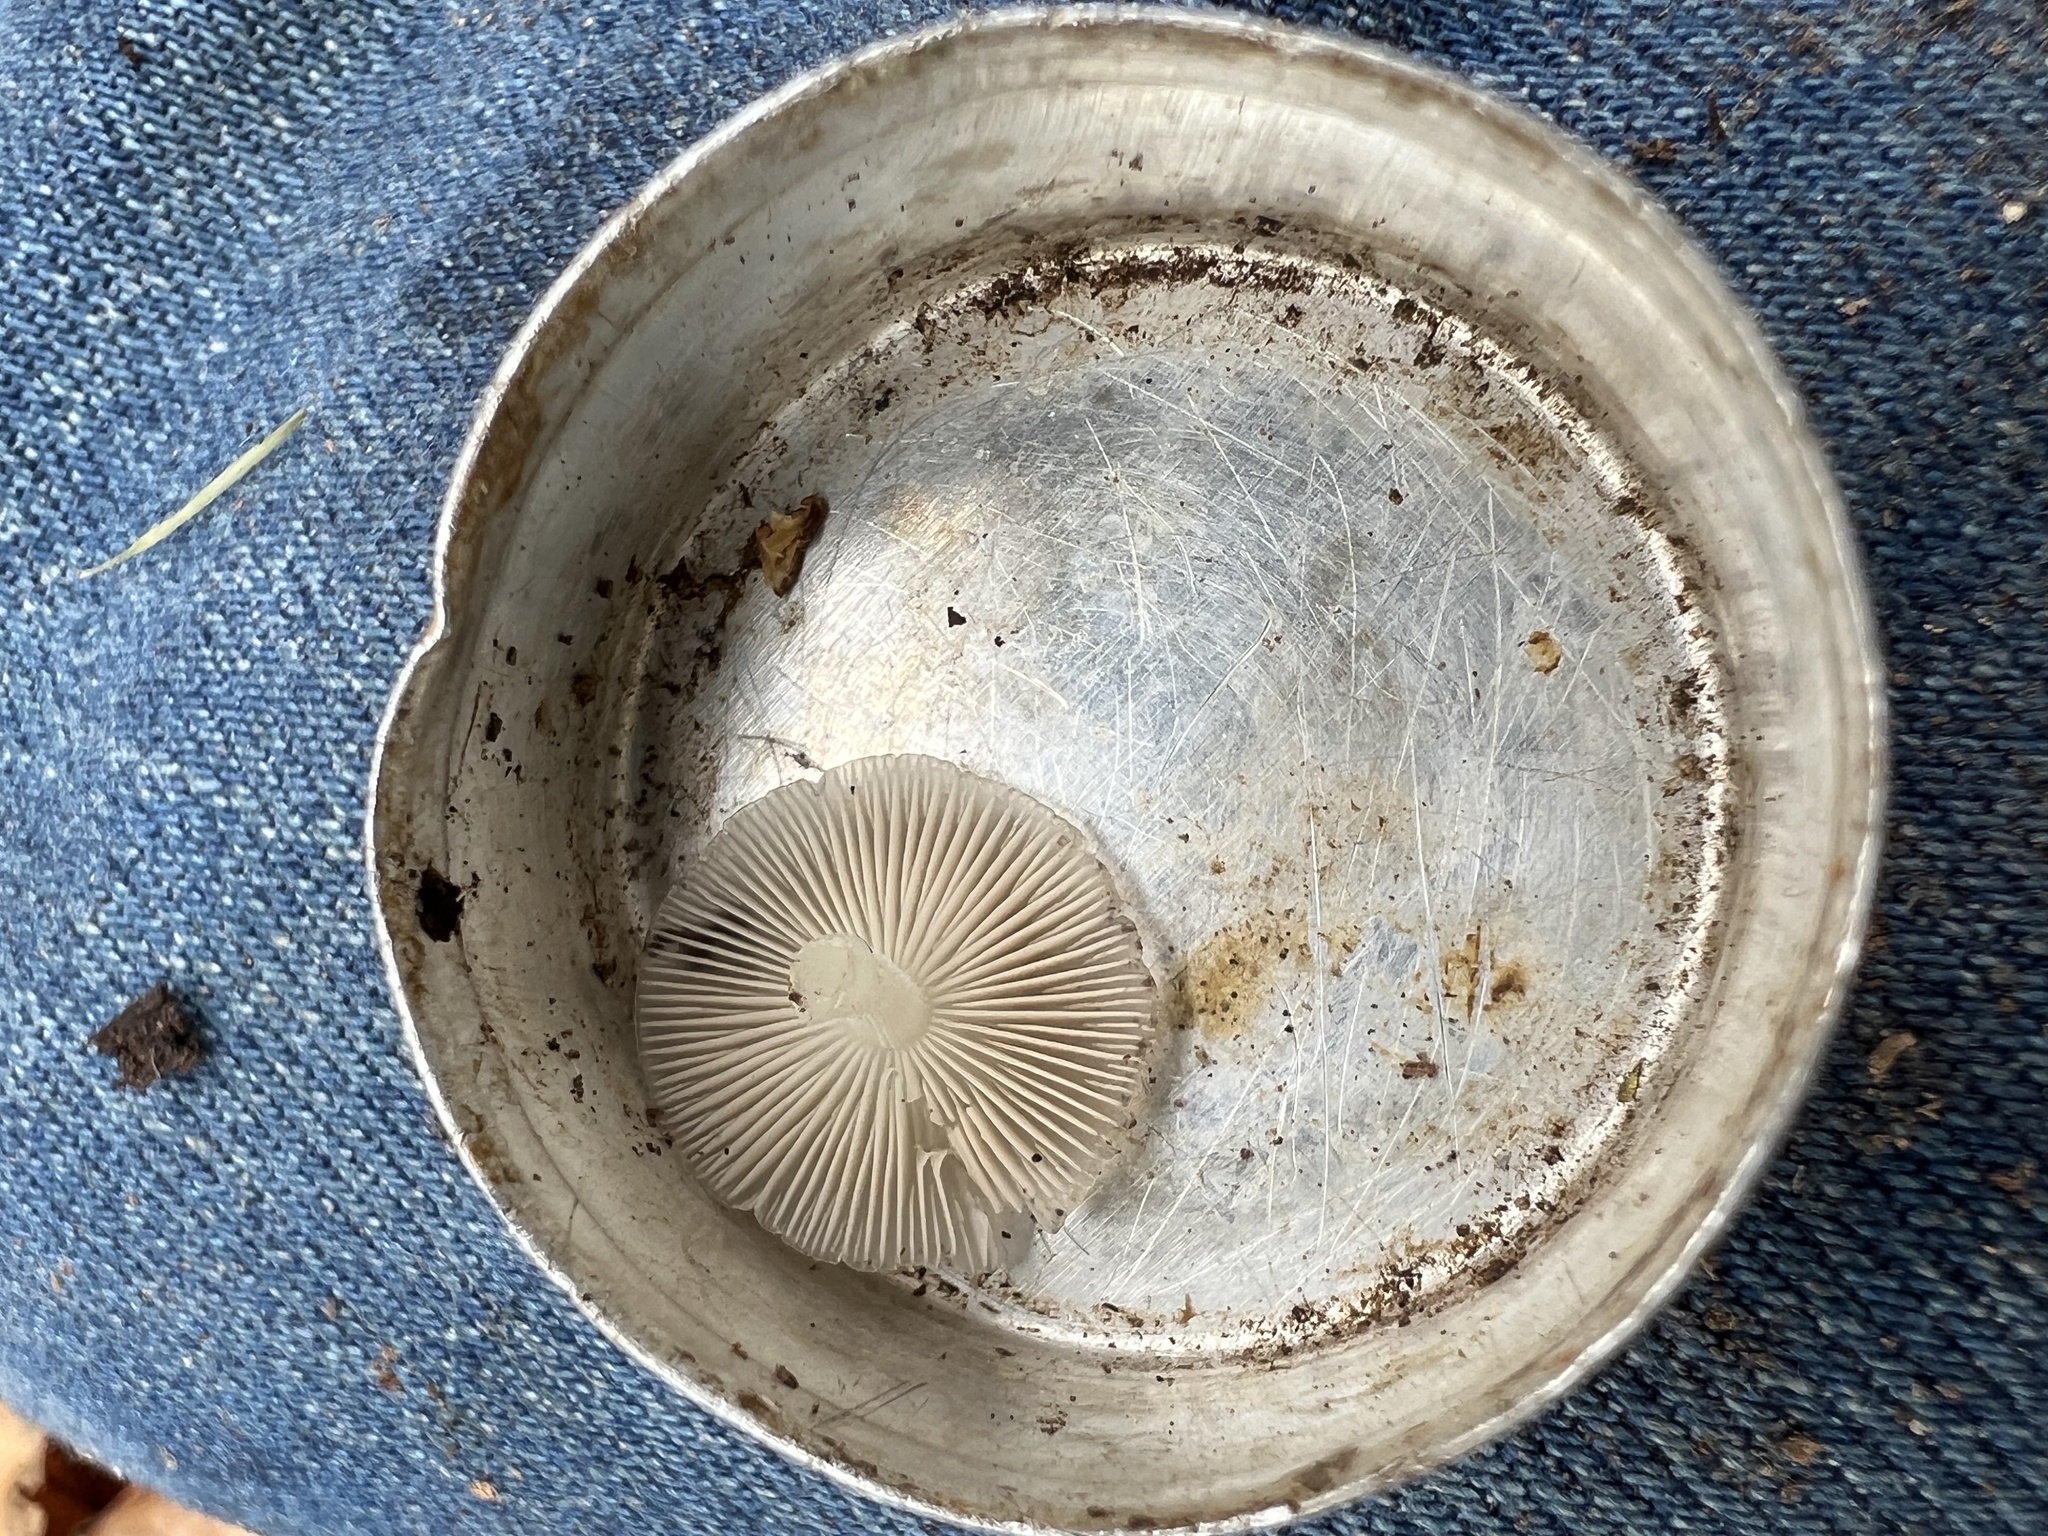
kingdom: Fungi
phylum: Basidiomycota
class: Agaricomycetes
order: Agaricales
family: Bolbitiaceae
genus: Bolbitius
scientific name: Bolbitius reticulatus
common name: Netted fieldcap
